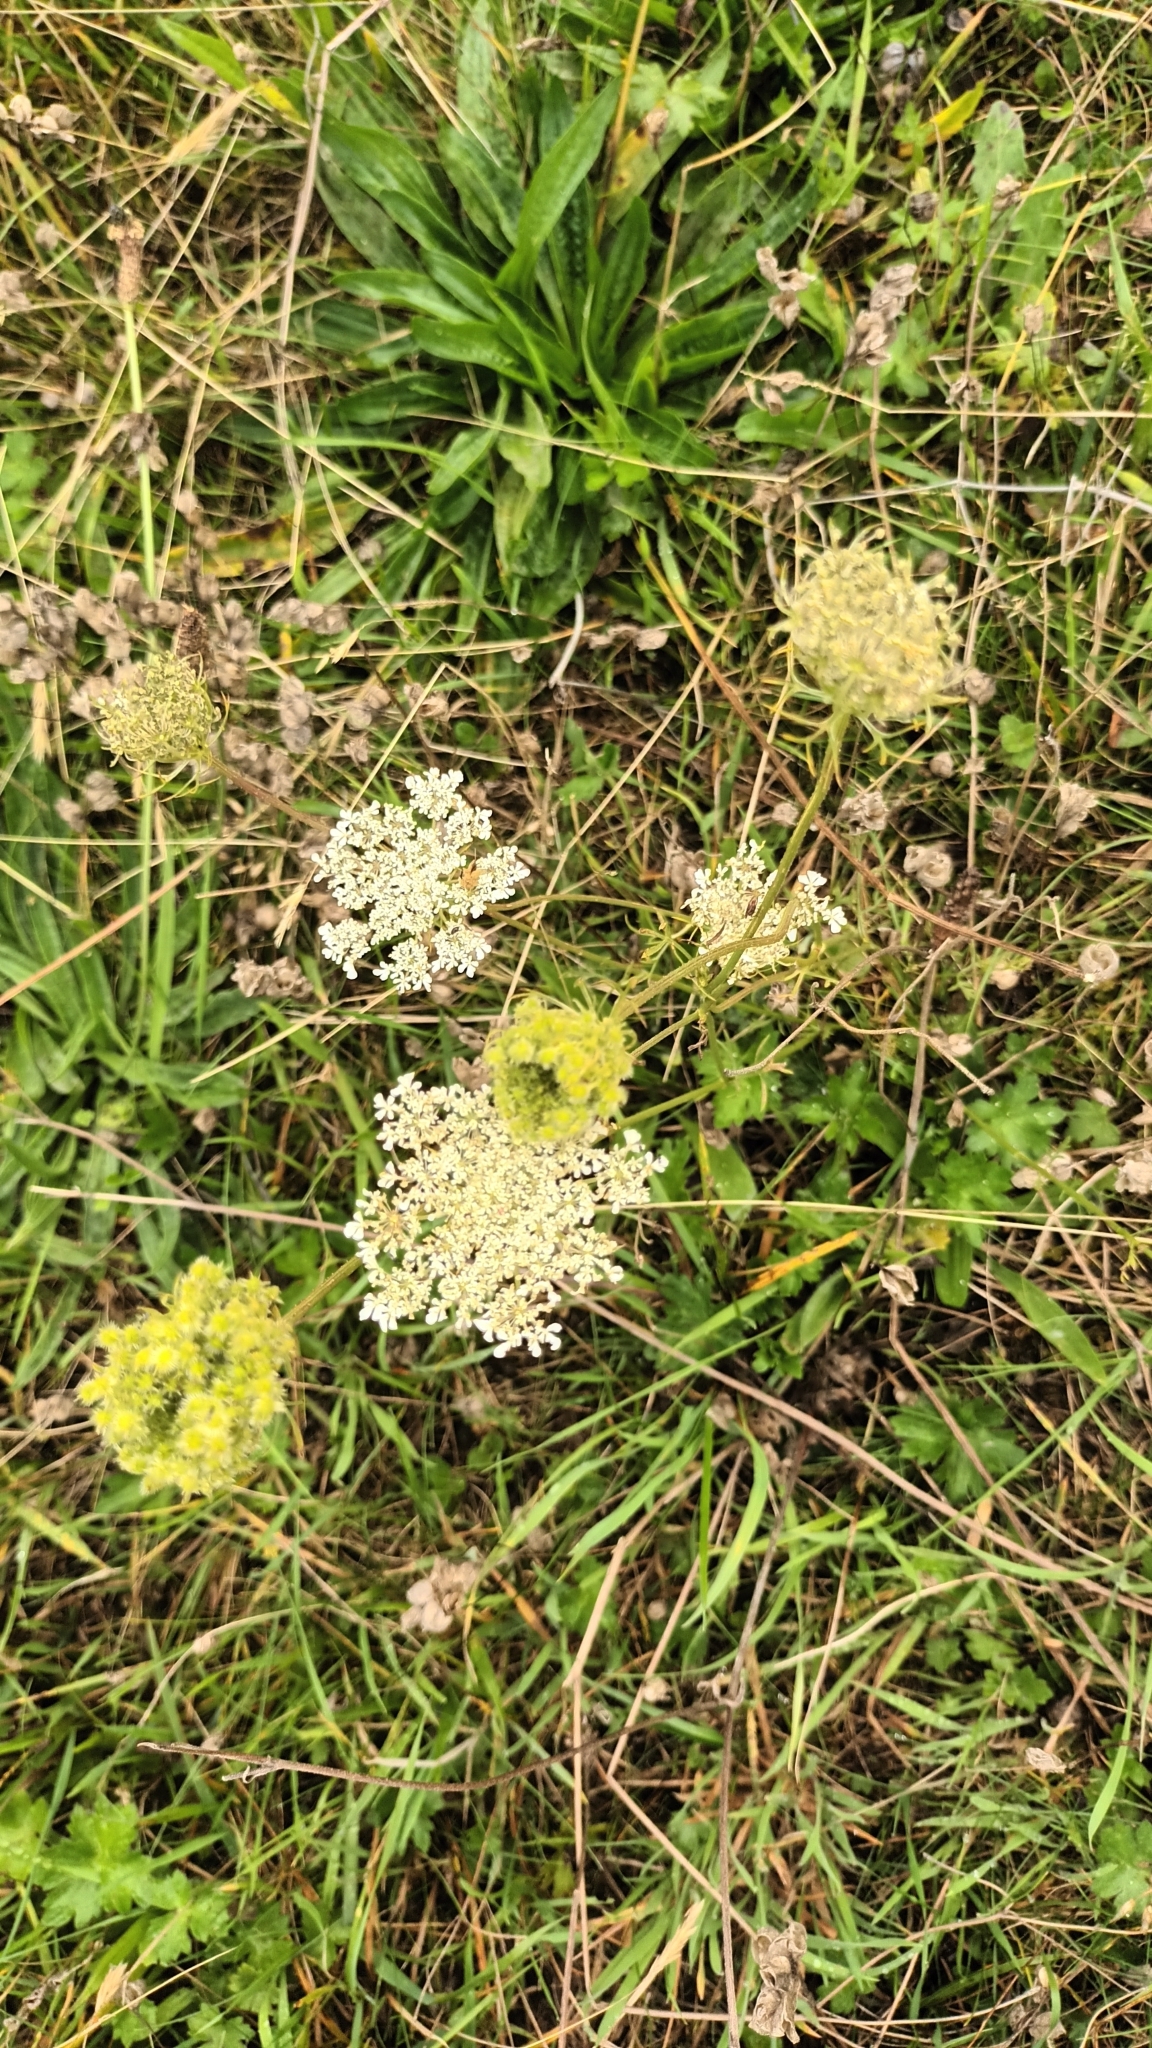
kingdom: Plantae
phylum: Tracheophyta
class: Magnoliopsida
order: Apiales
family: Apiaceae
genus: Daucus
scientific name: Daucus carota
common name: Wild carrot
